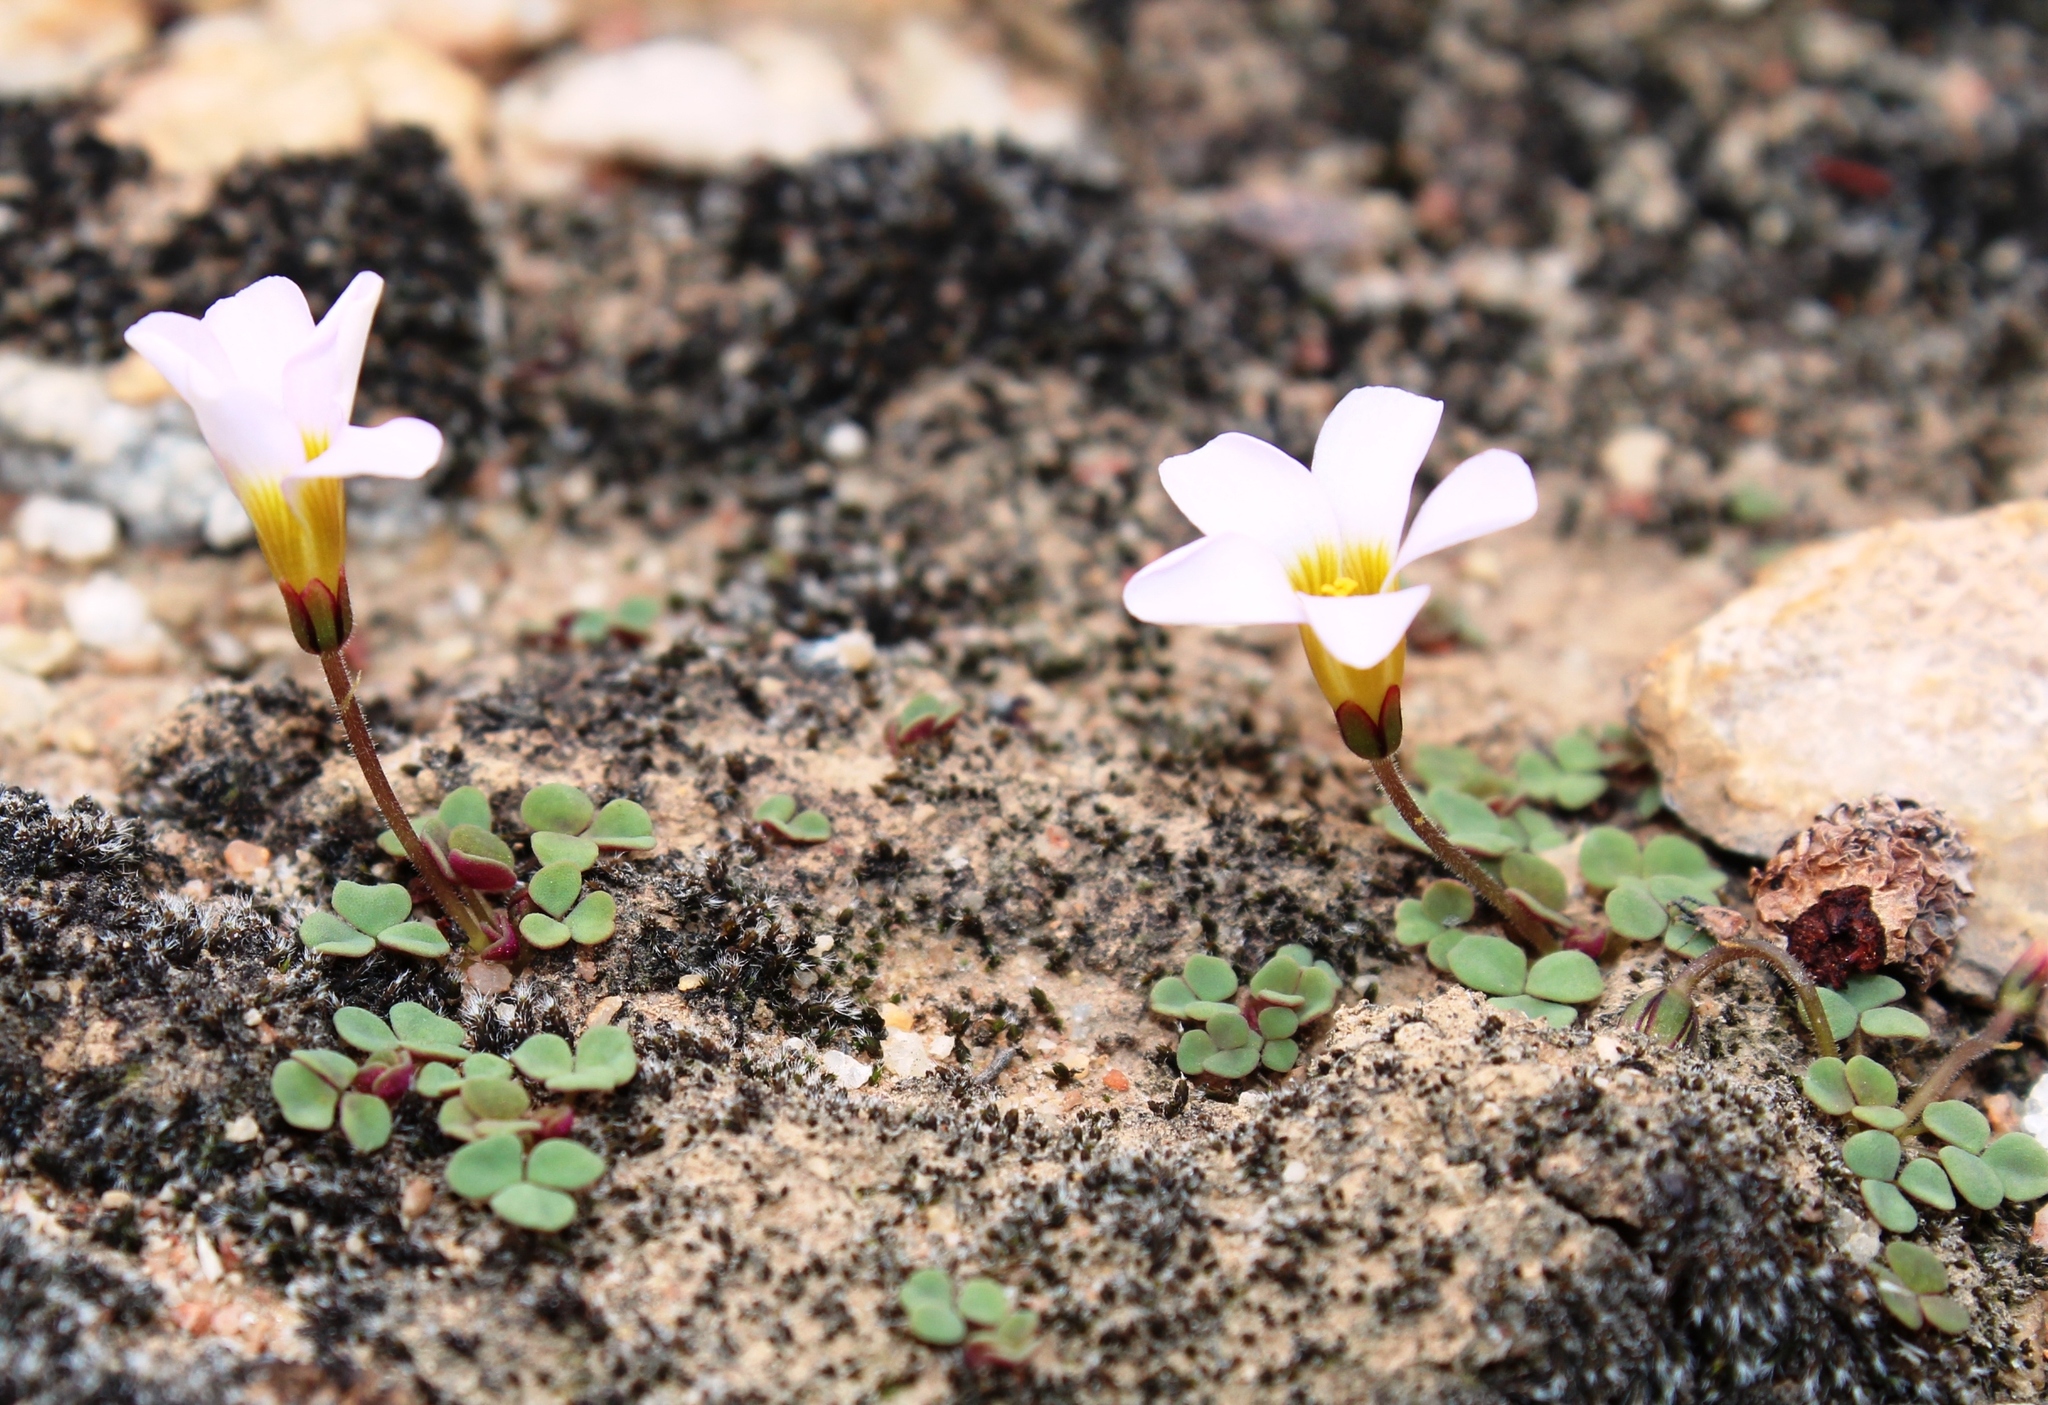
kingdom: Plantae
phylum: Tracheophyta
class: Magnoliopsida
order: Oxalidales
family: Oxalidaceae
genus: Oxalis
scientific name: Oxalis punctata
